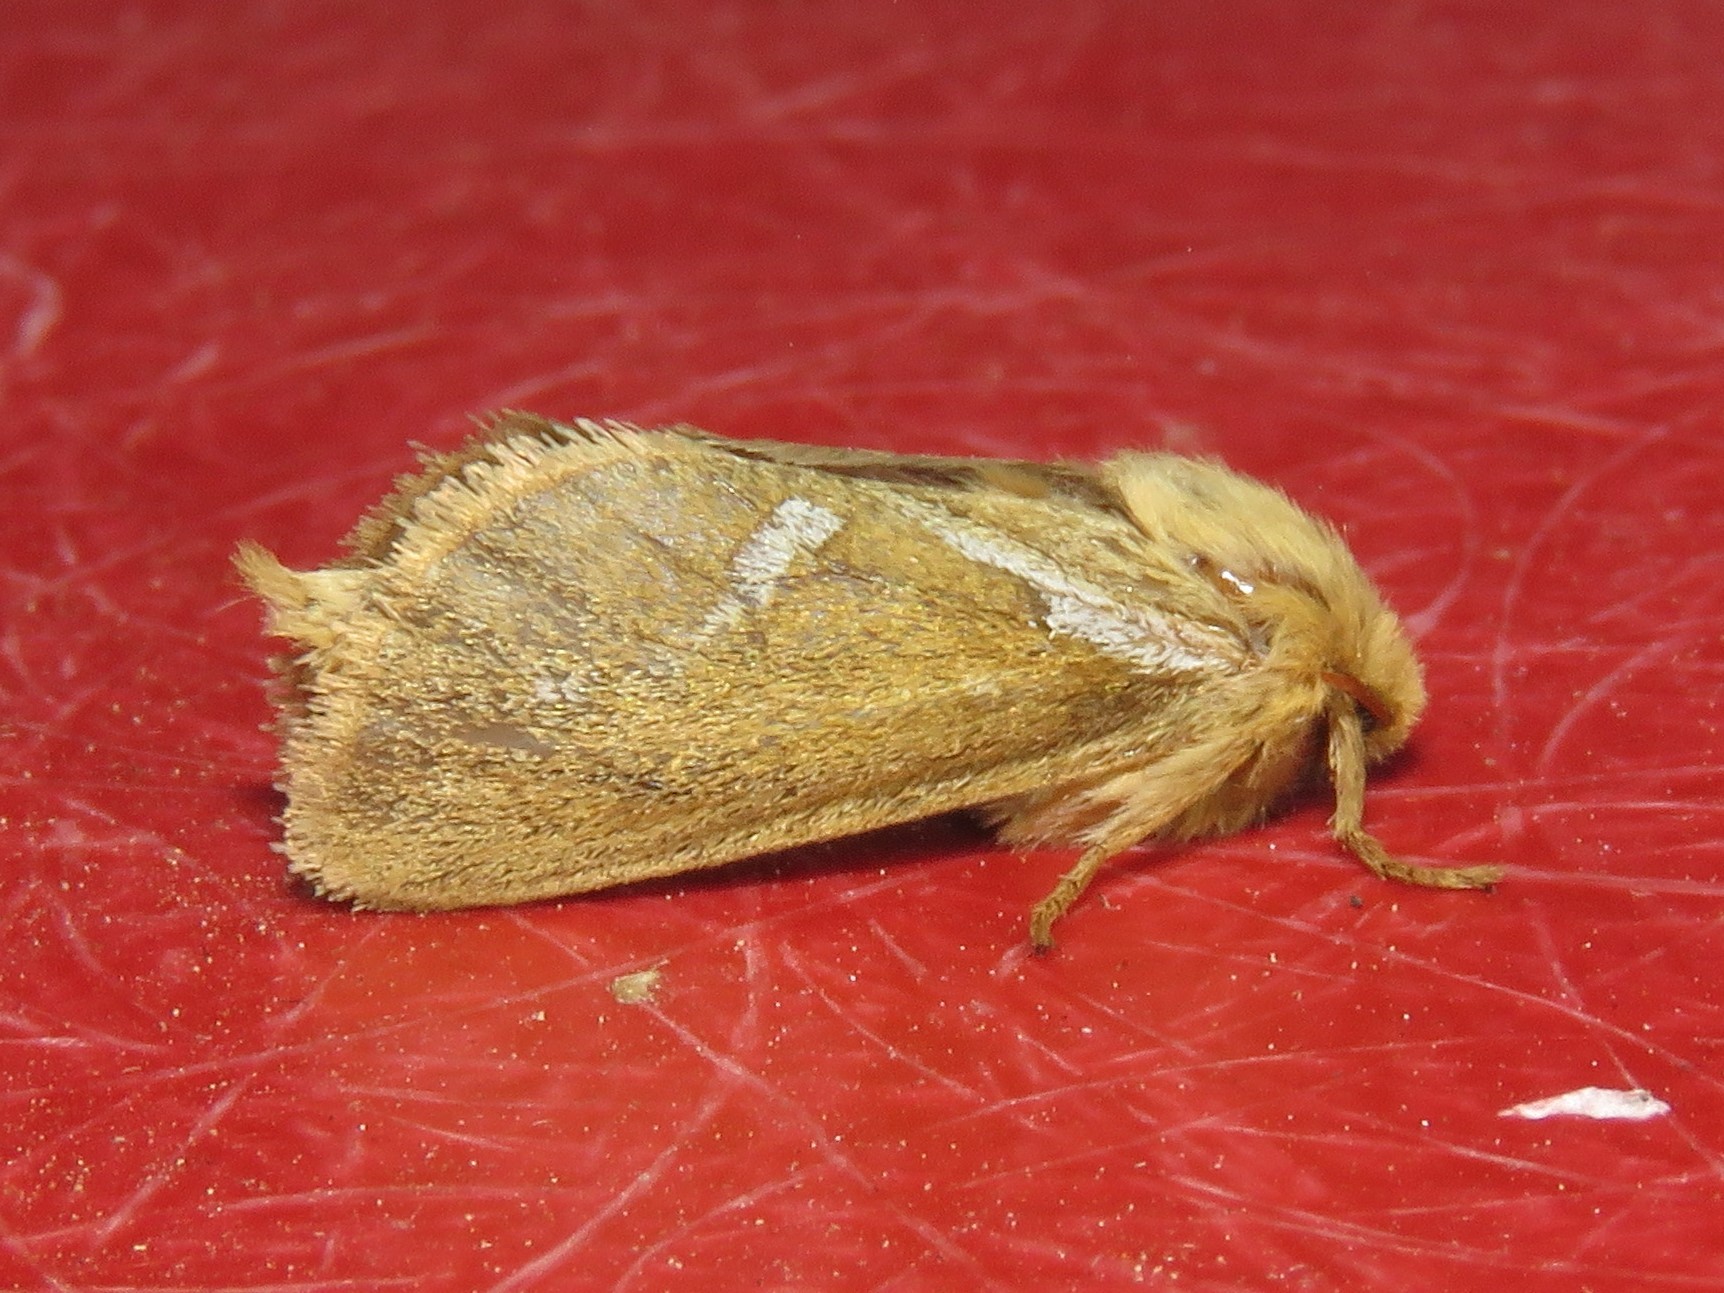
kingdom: Animalia
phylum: Arthropoda
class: Insecta
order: Lepidoptera
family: Hepialidae
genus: Korscheltellus
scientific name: Korscheltellus lupulina
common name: Common swift
